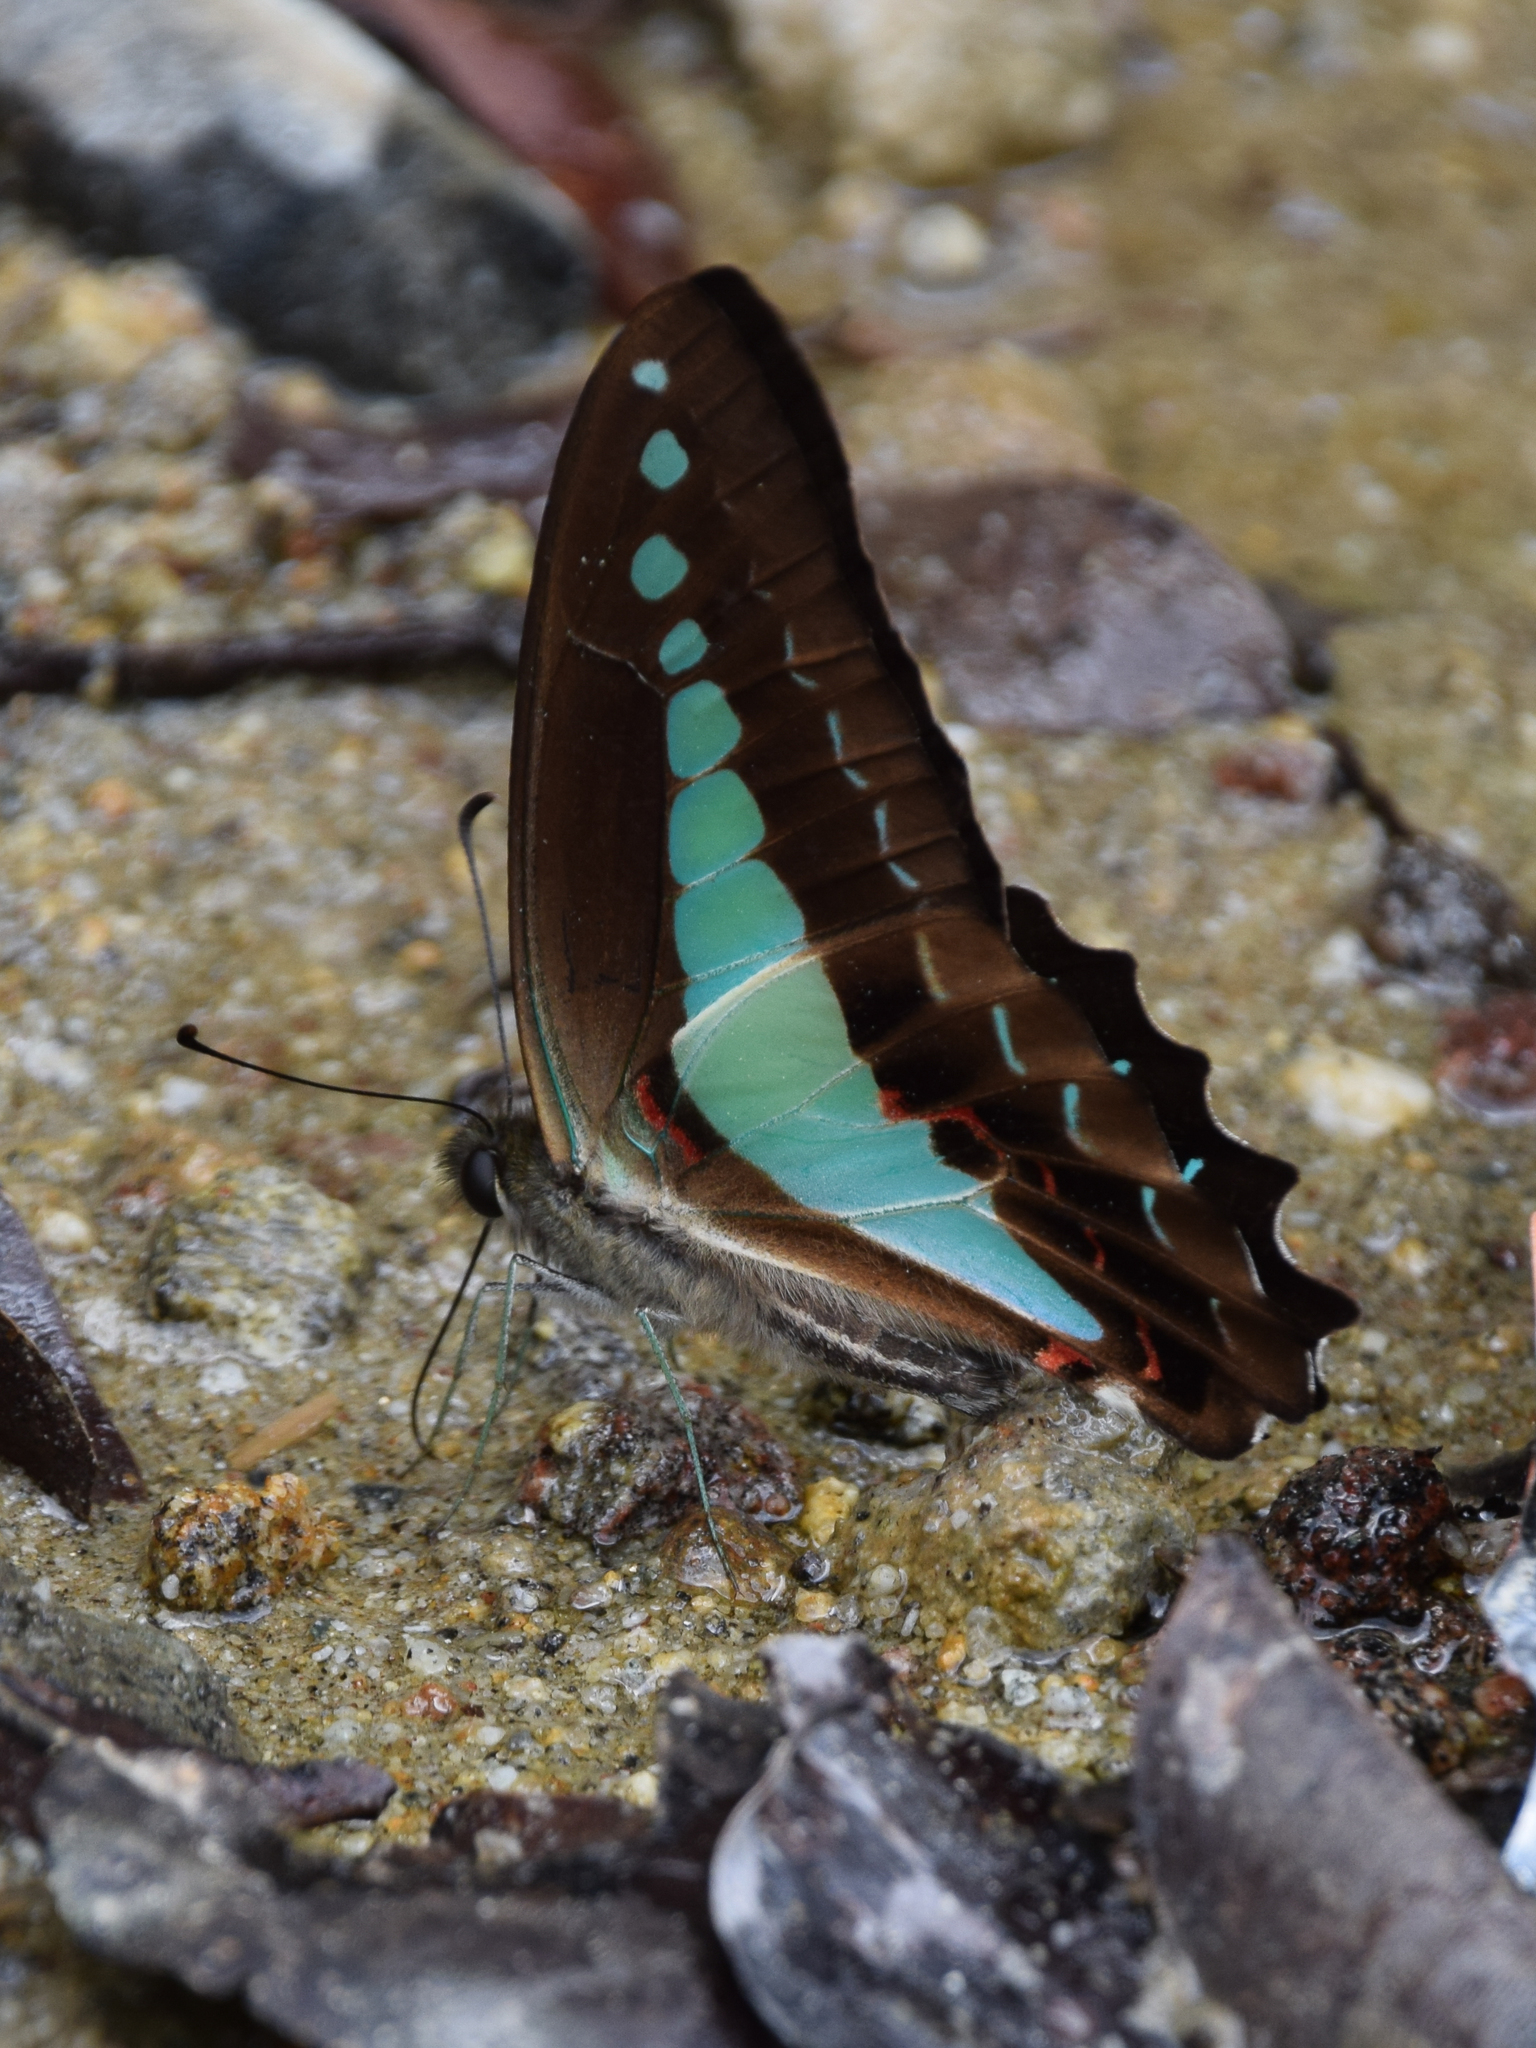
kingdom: Animalia
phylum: Arthropoda
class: Insecta
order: Lepidoptera
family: Papilionidae
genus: Graphium
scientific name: Graphium monticolus
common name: Sulawesi blue triangle
